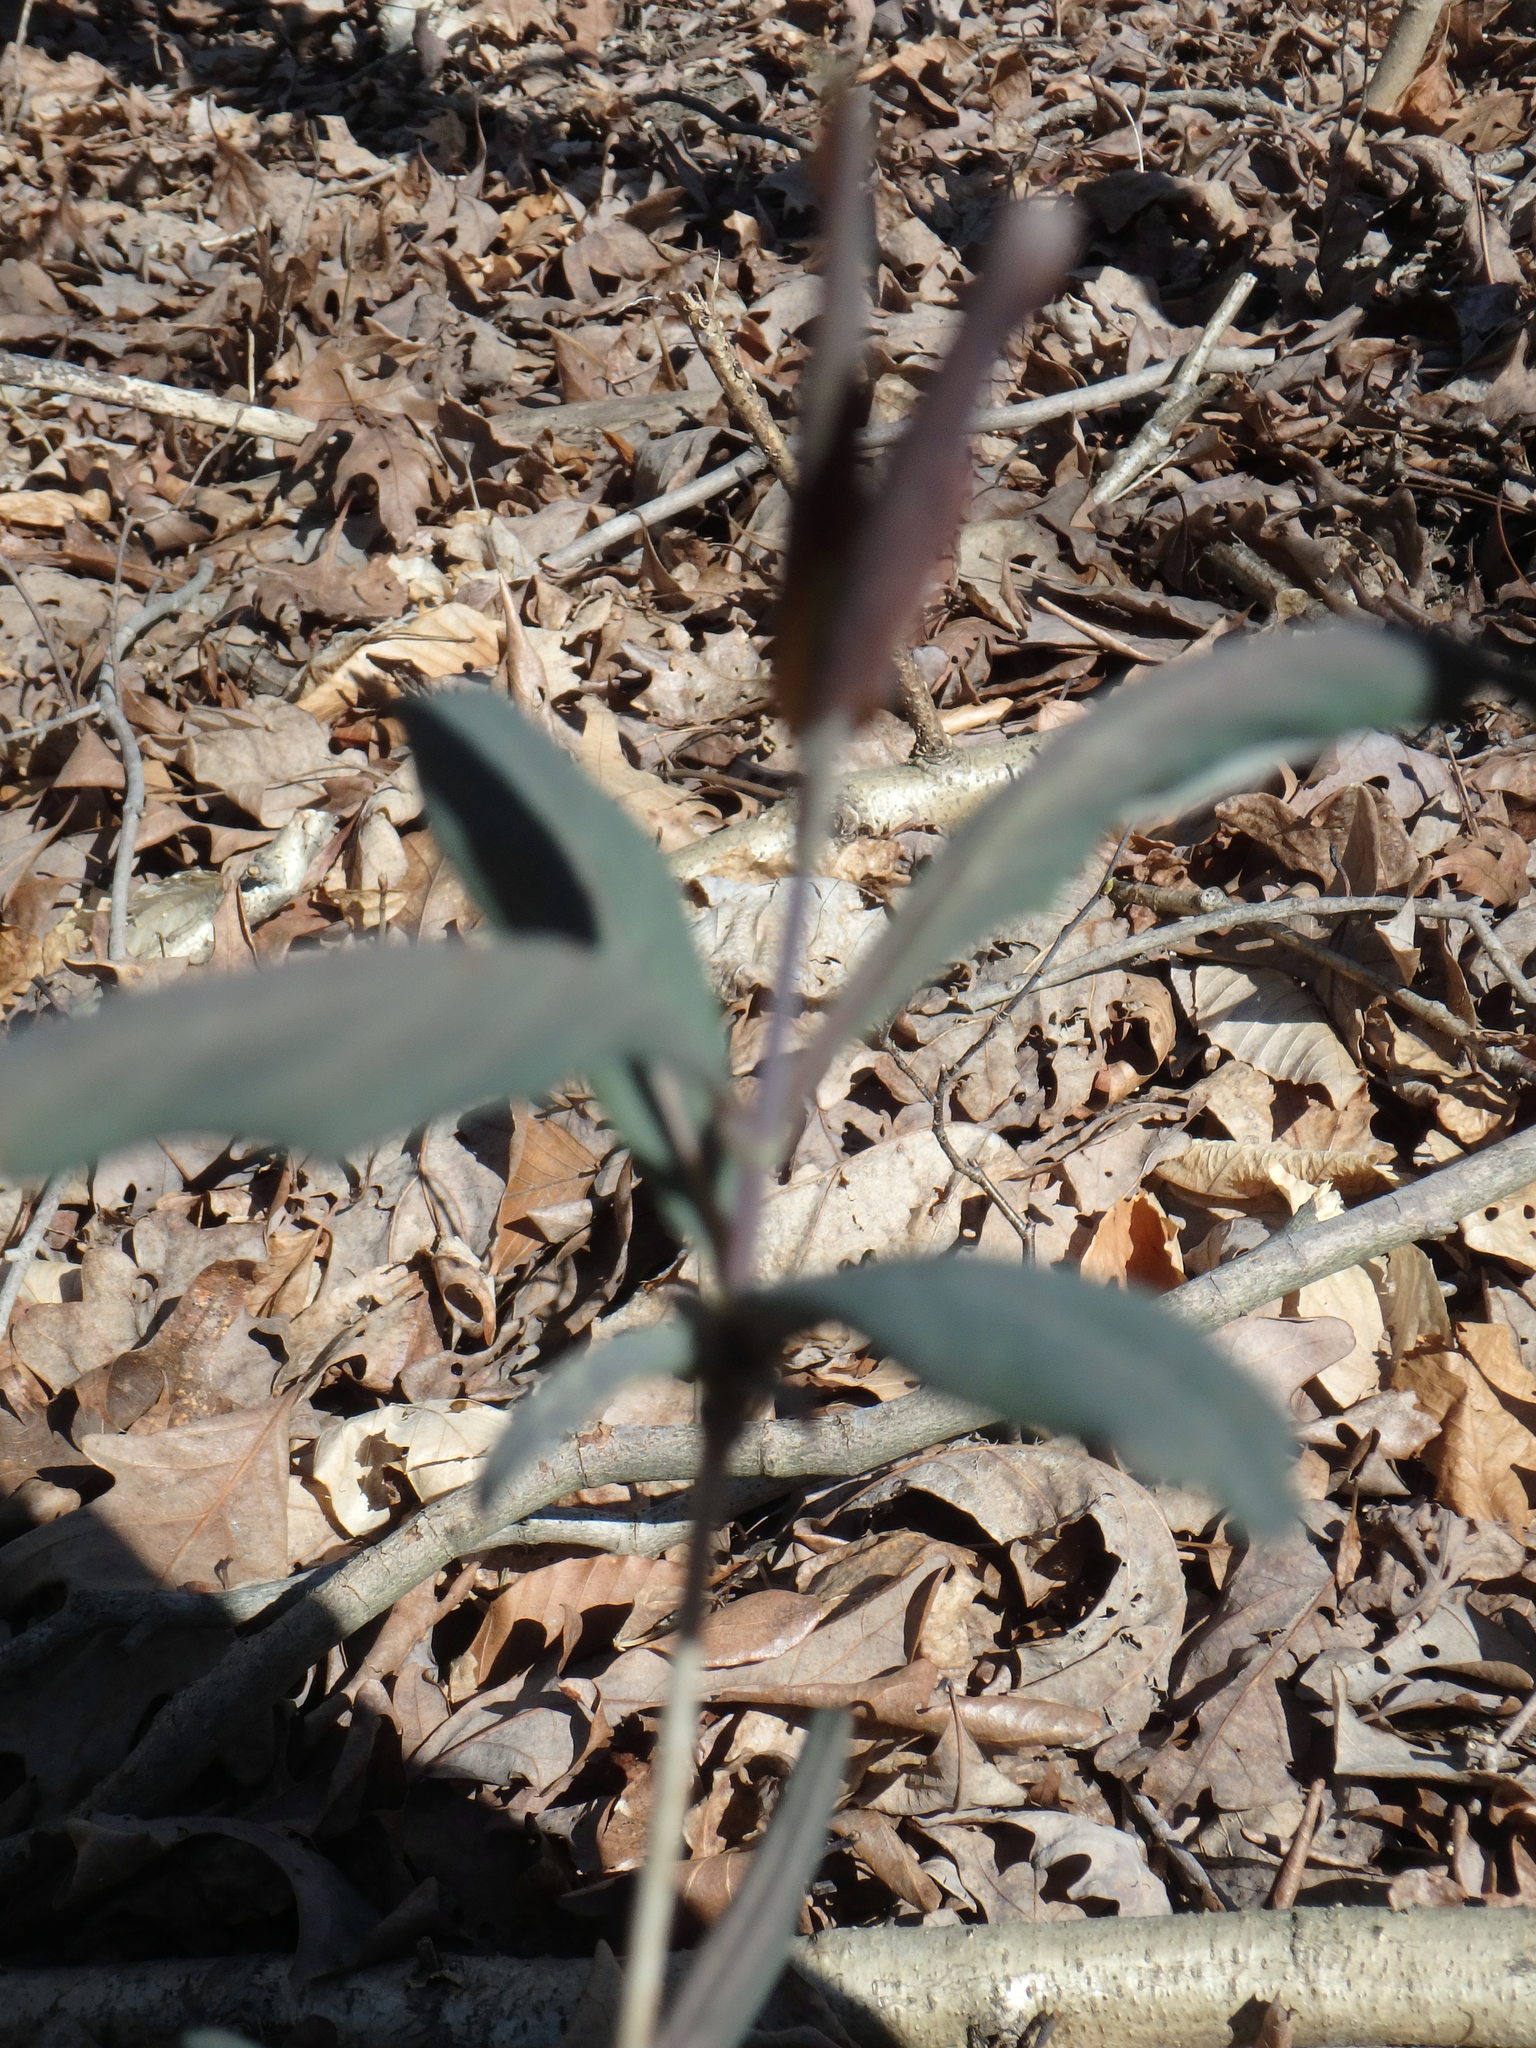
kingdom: Plantae
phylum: Tracheophyta
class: Magnoliopsida
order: Dipsacales
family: Caprifoliaceae
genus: Lonicera
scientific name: Lonicera dioica
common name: Limber honeysuckle
